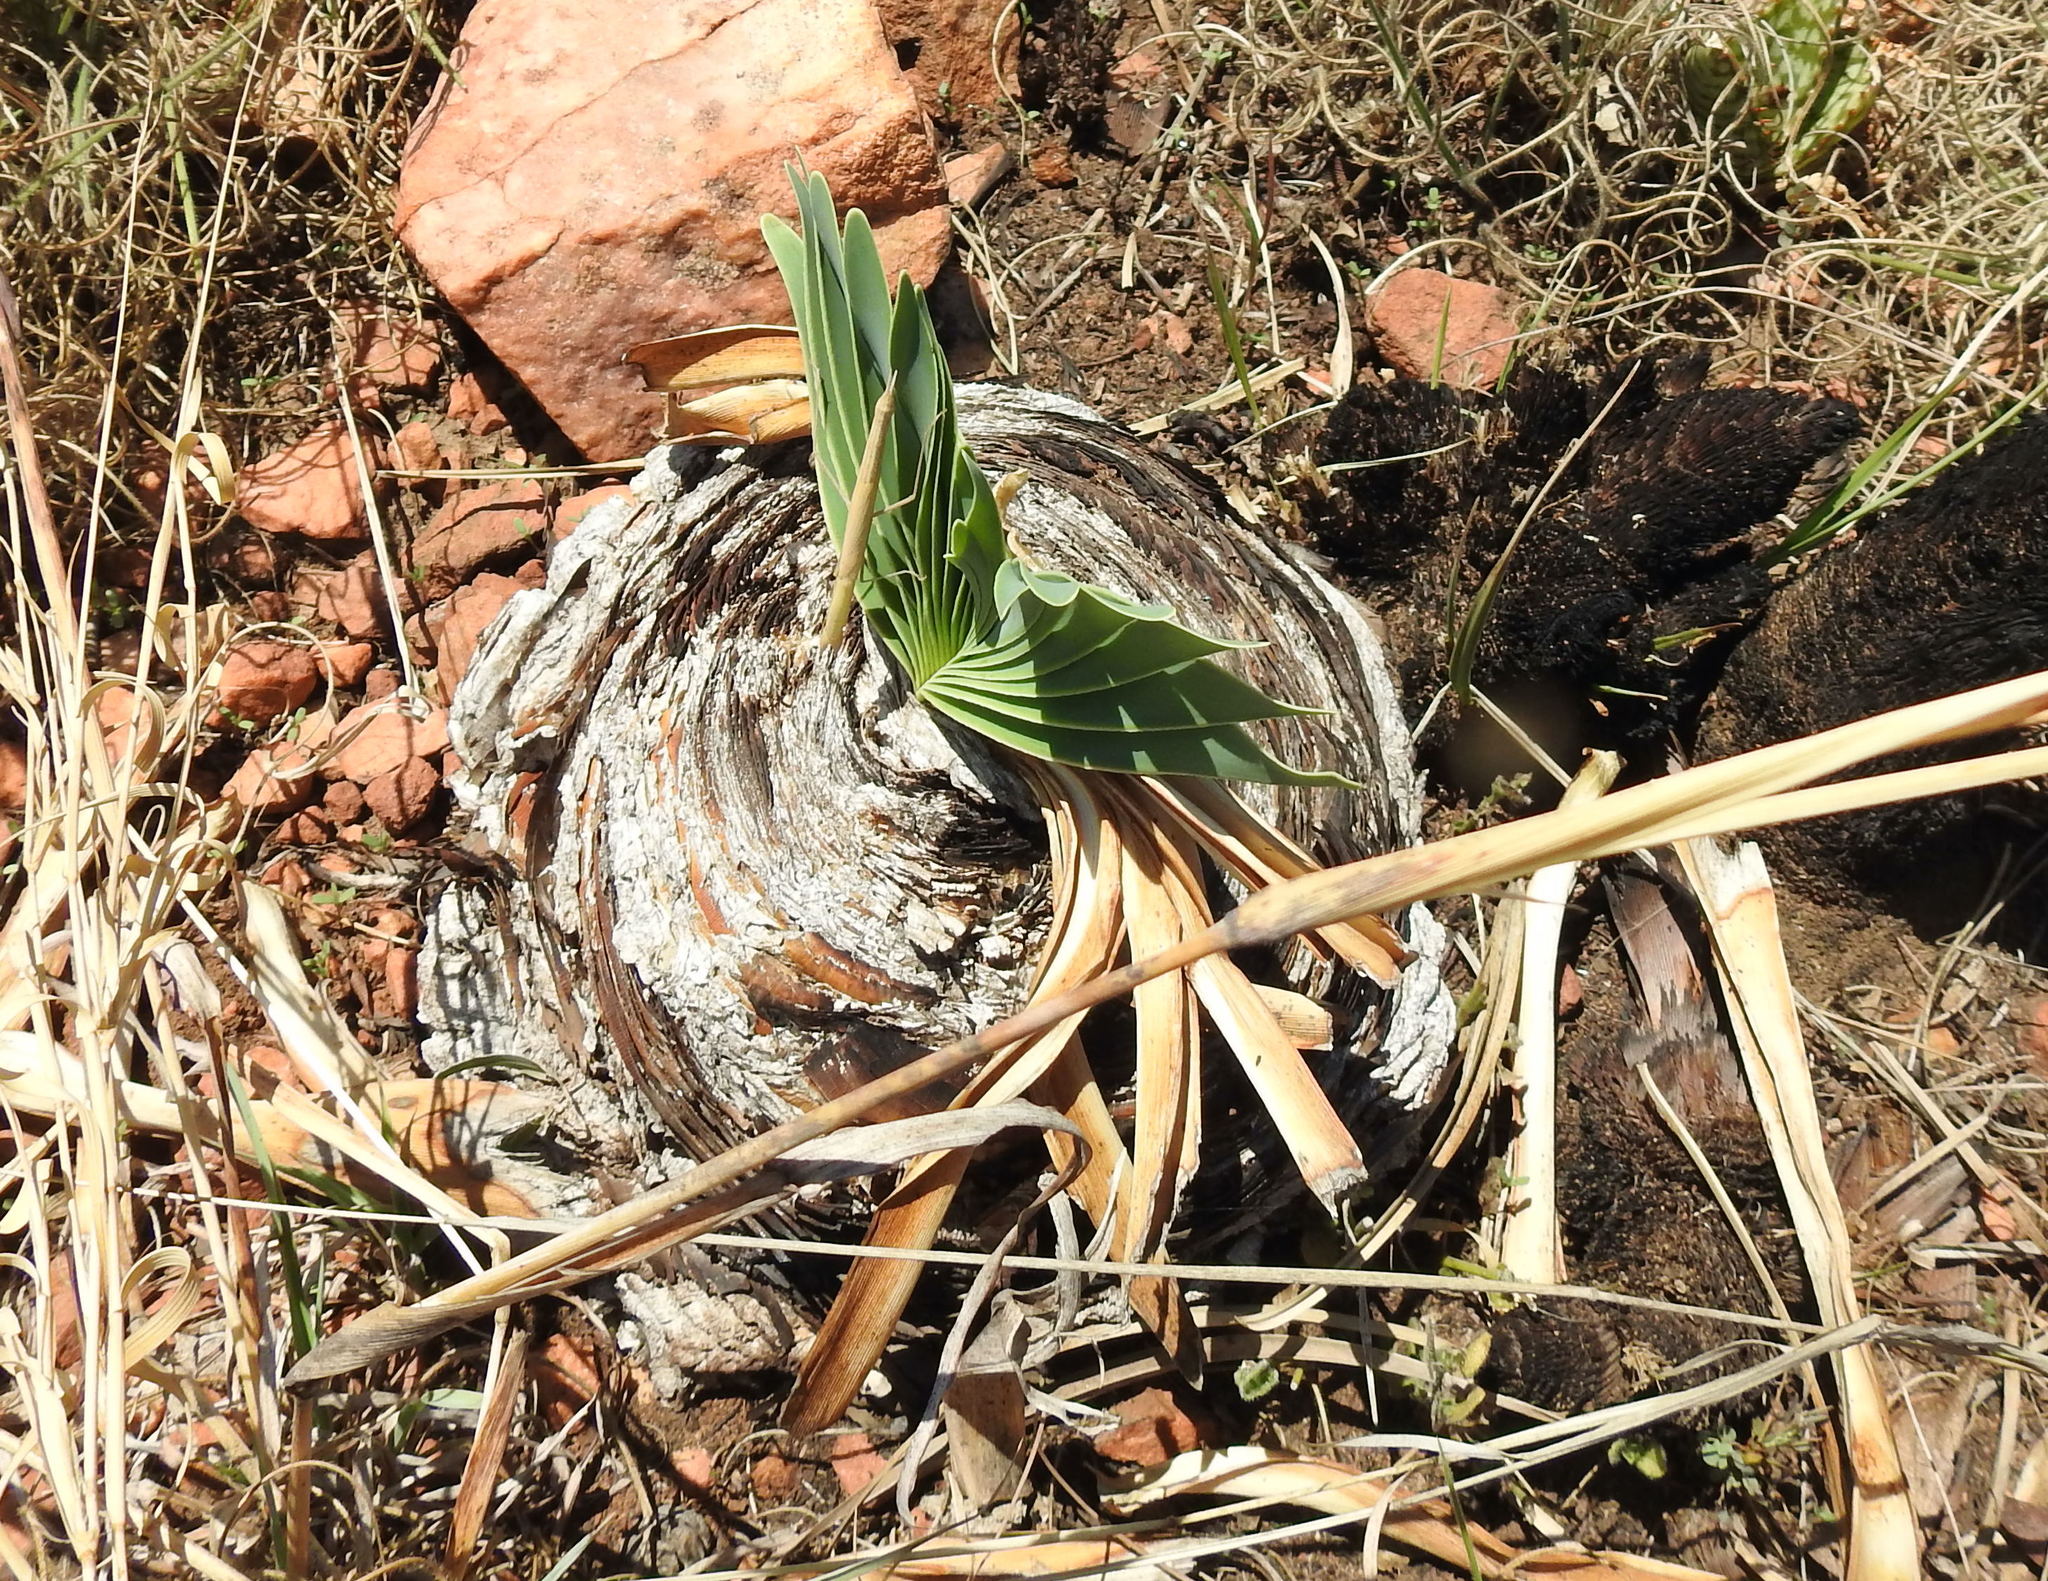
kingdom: Plantae
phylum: Tracheophyta
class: Liliopsida
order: Asparagales
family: Amaryllidaceae
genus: Boophone
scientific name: Boophone disticha
